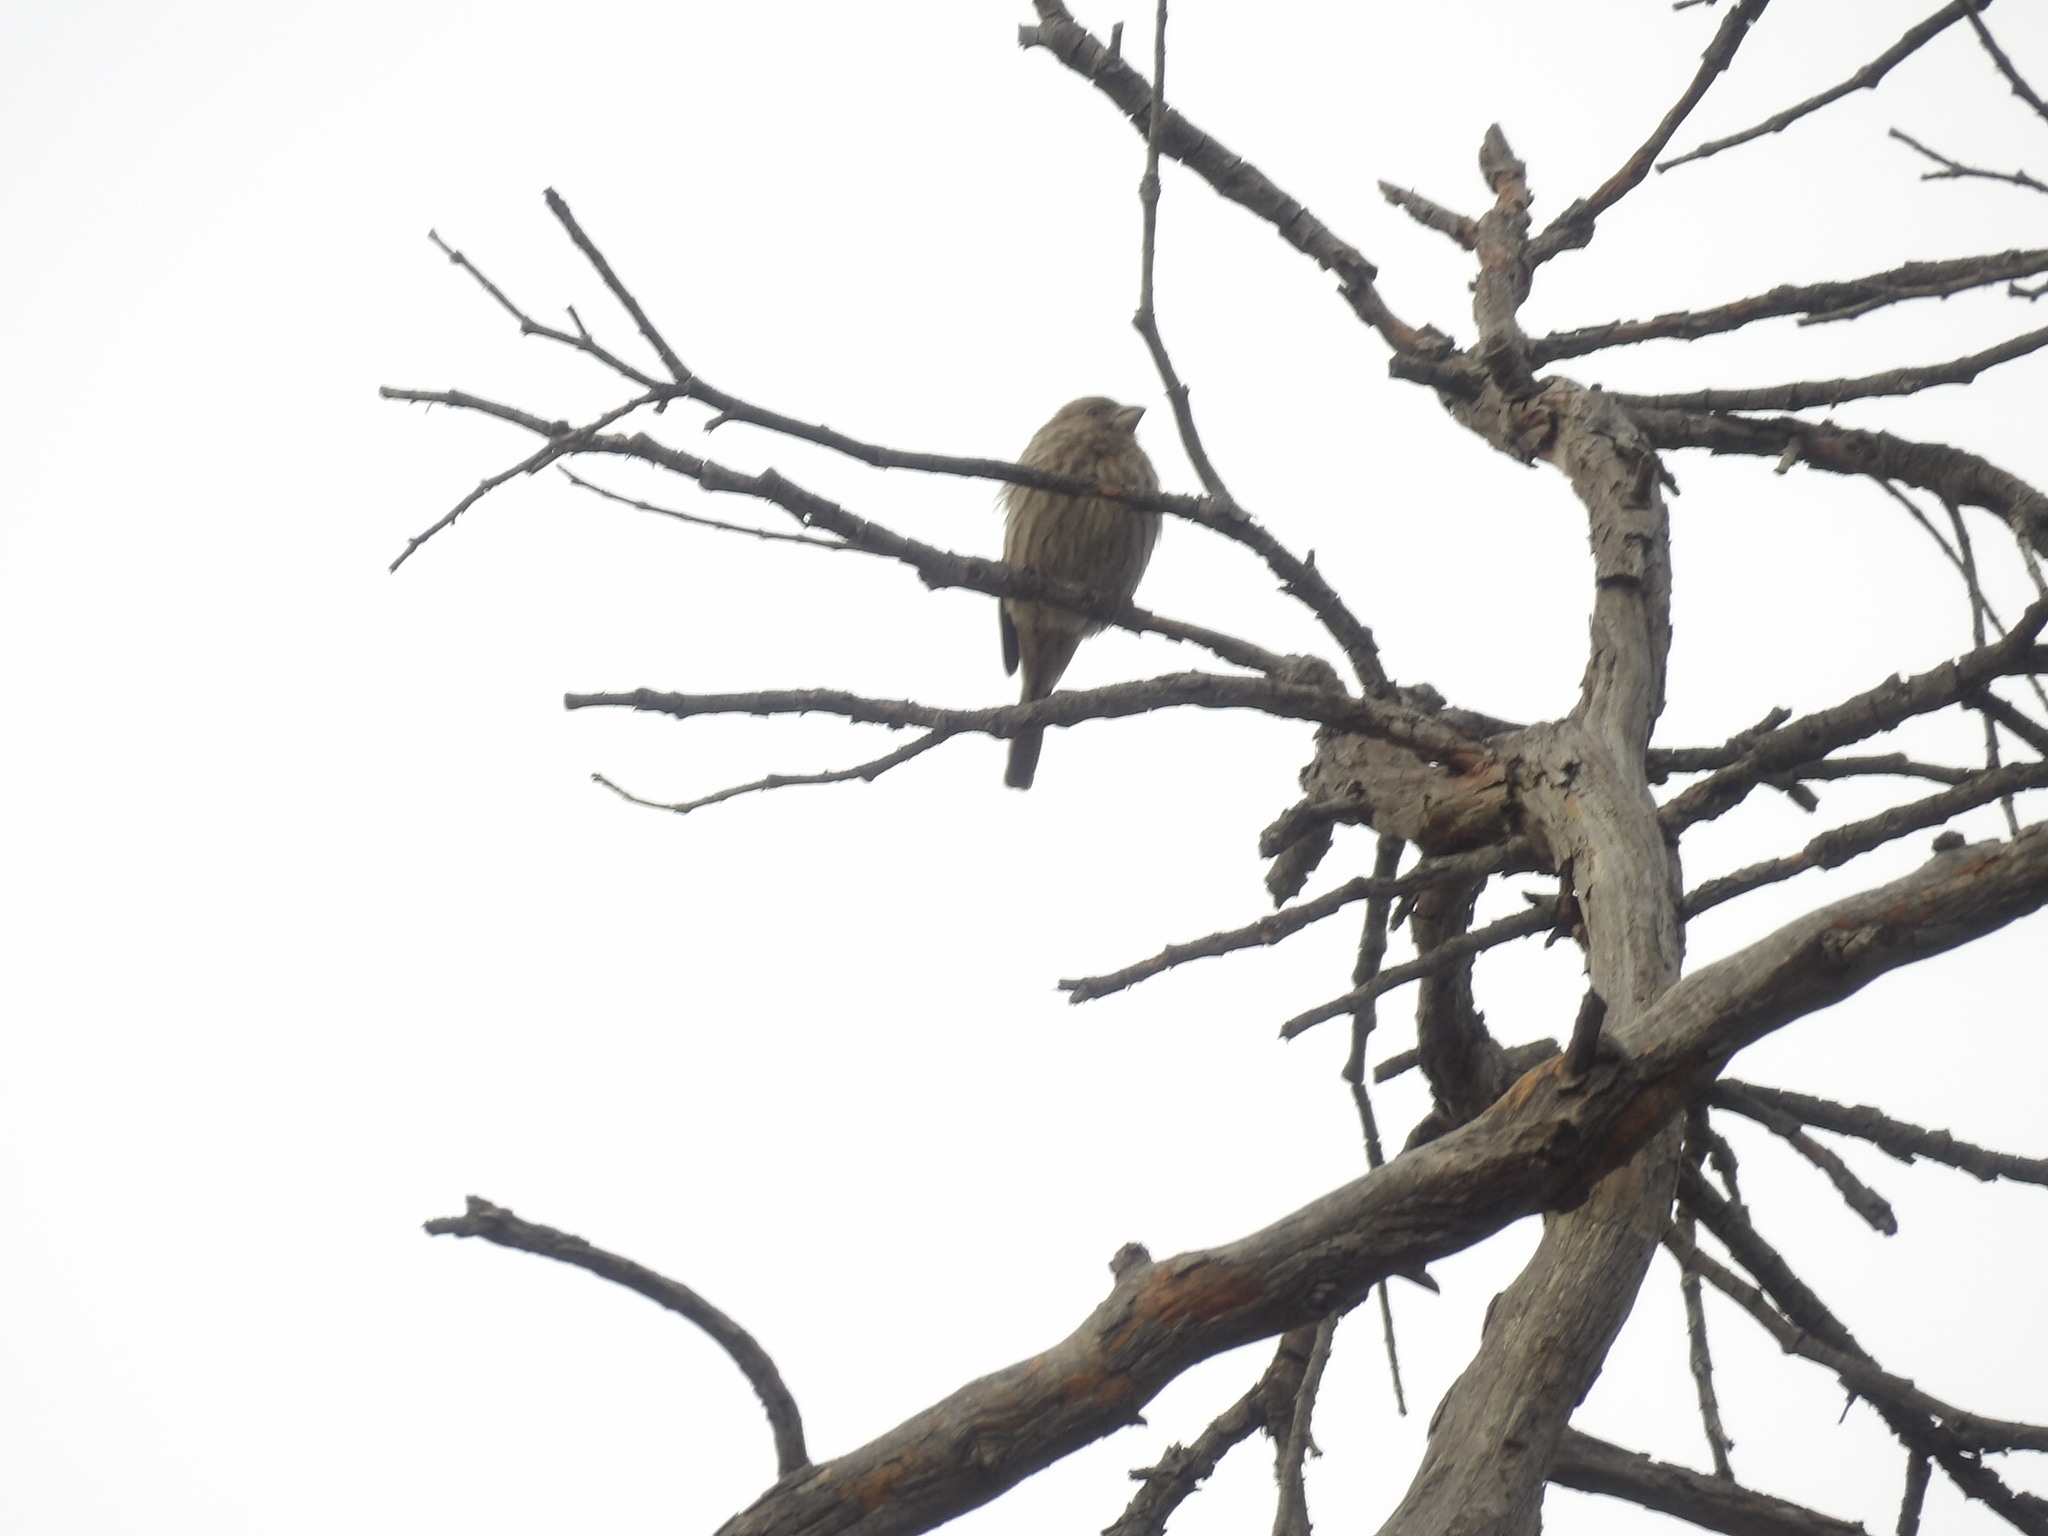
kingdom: Animalia
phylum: Chordata
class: Aves
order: Passeriformes
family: Fringillidae
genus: Haemorhous
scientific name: Haemorhous mexicanus
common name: House finch
